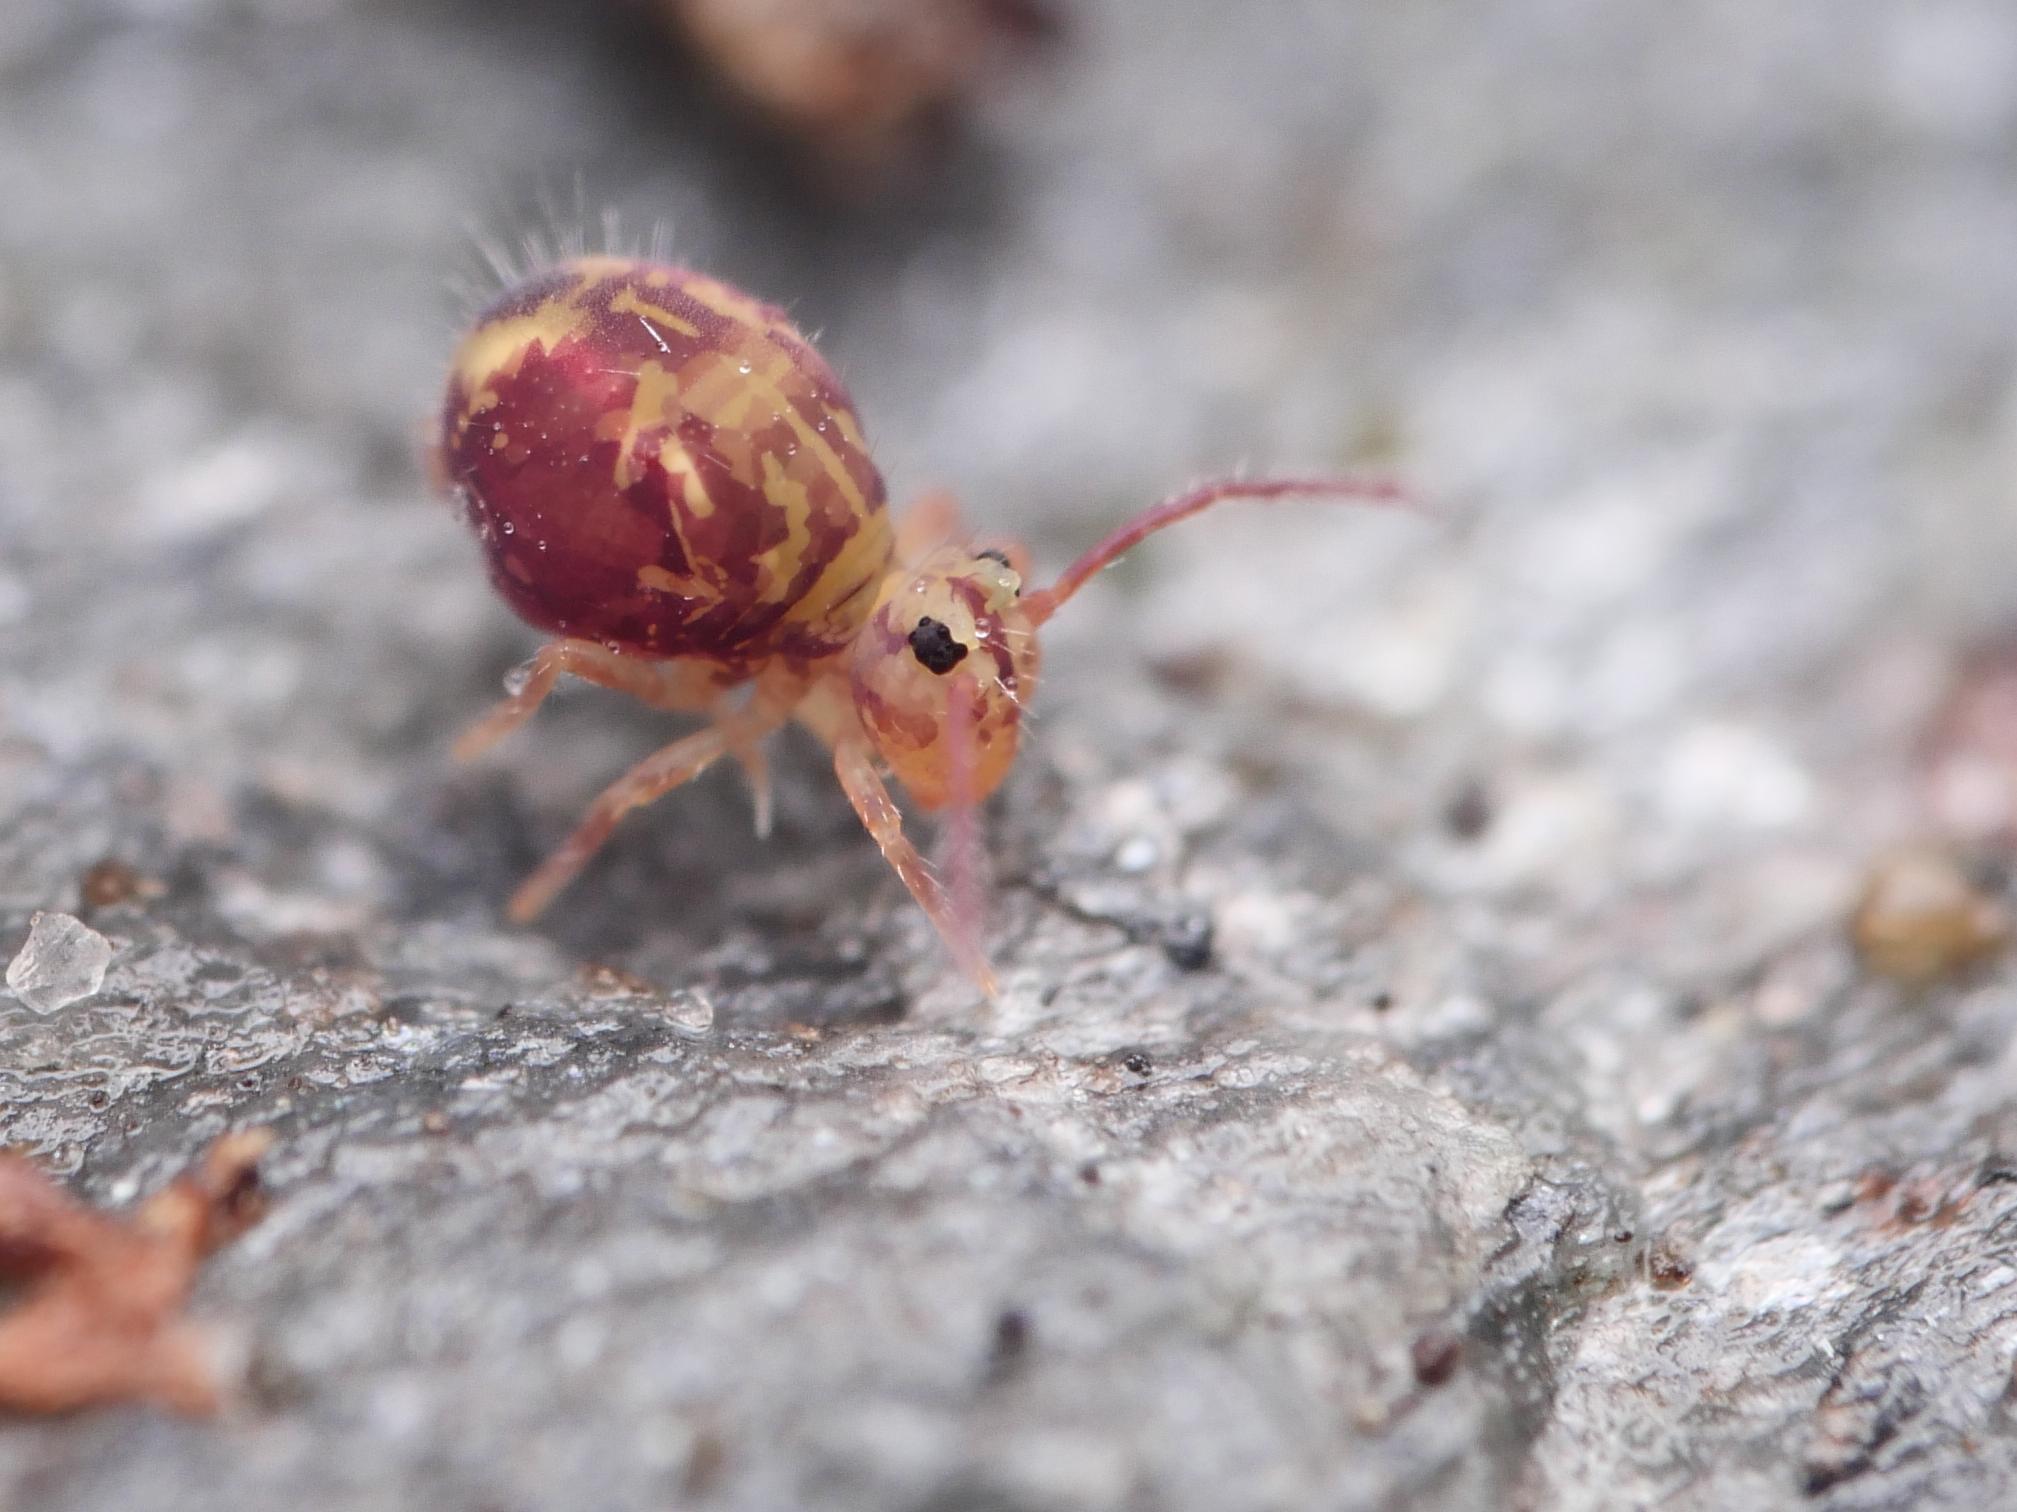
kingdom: Animalia
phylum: Arthropoda
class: Collembola
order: Symphypleona
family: Dicyrtomidae
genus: Dicyrtomina
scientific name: Dicyrtomina ornata
